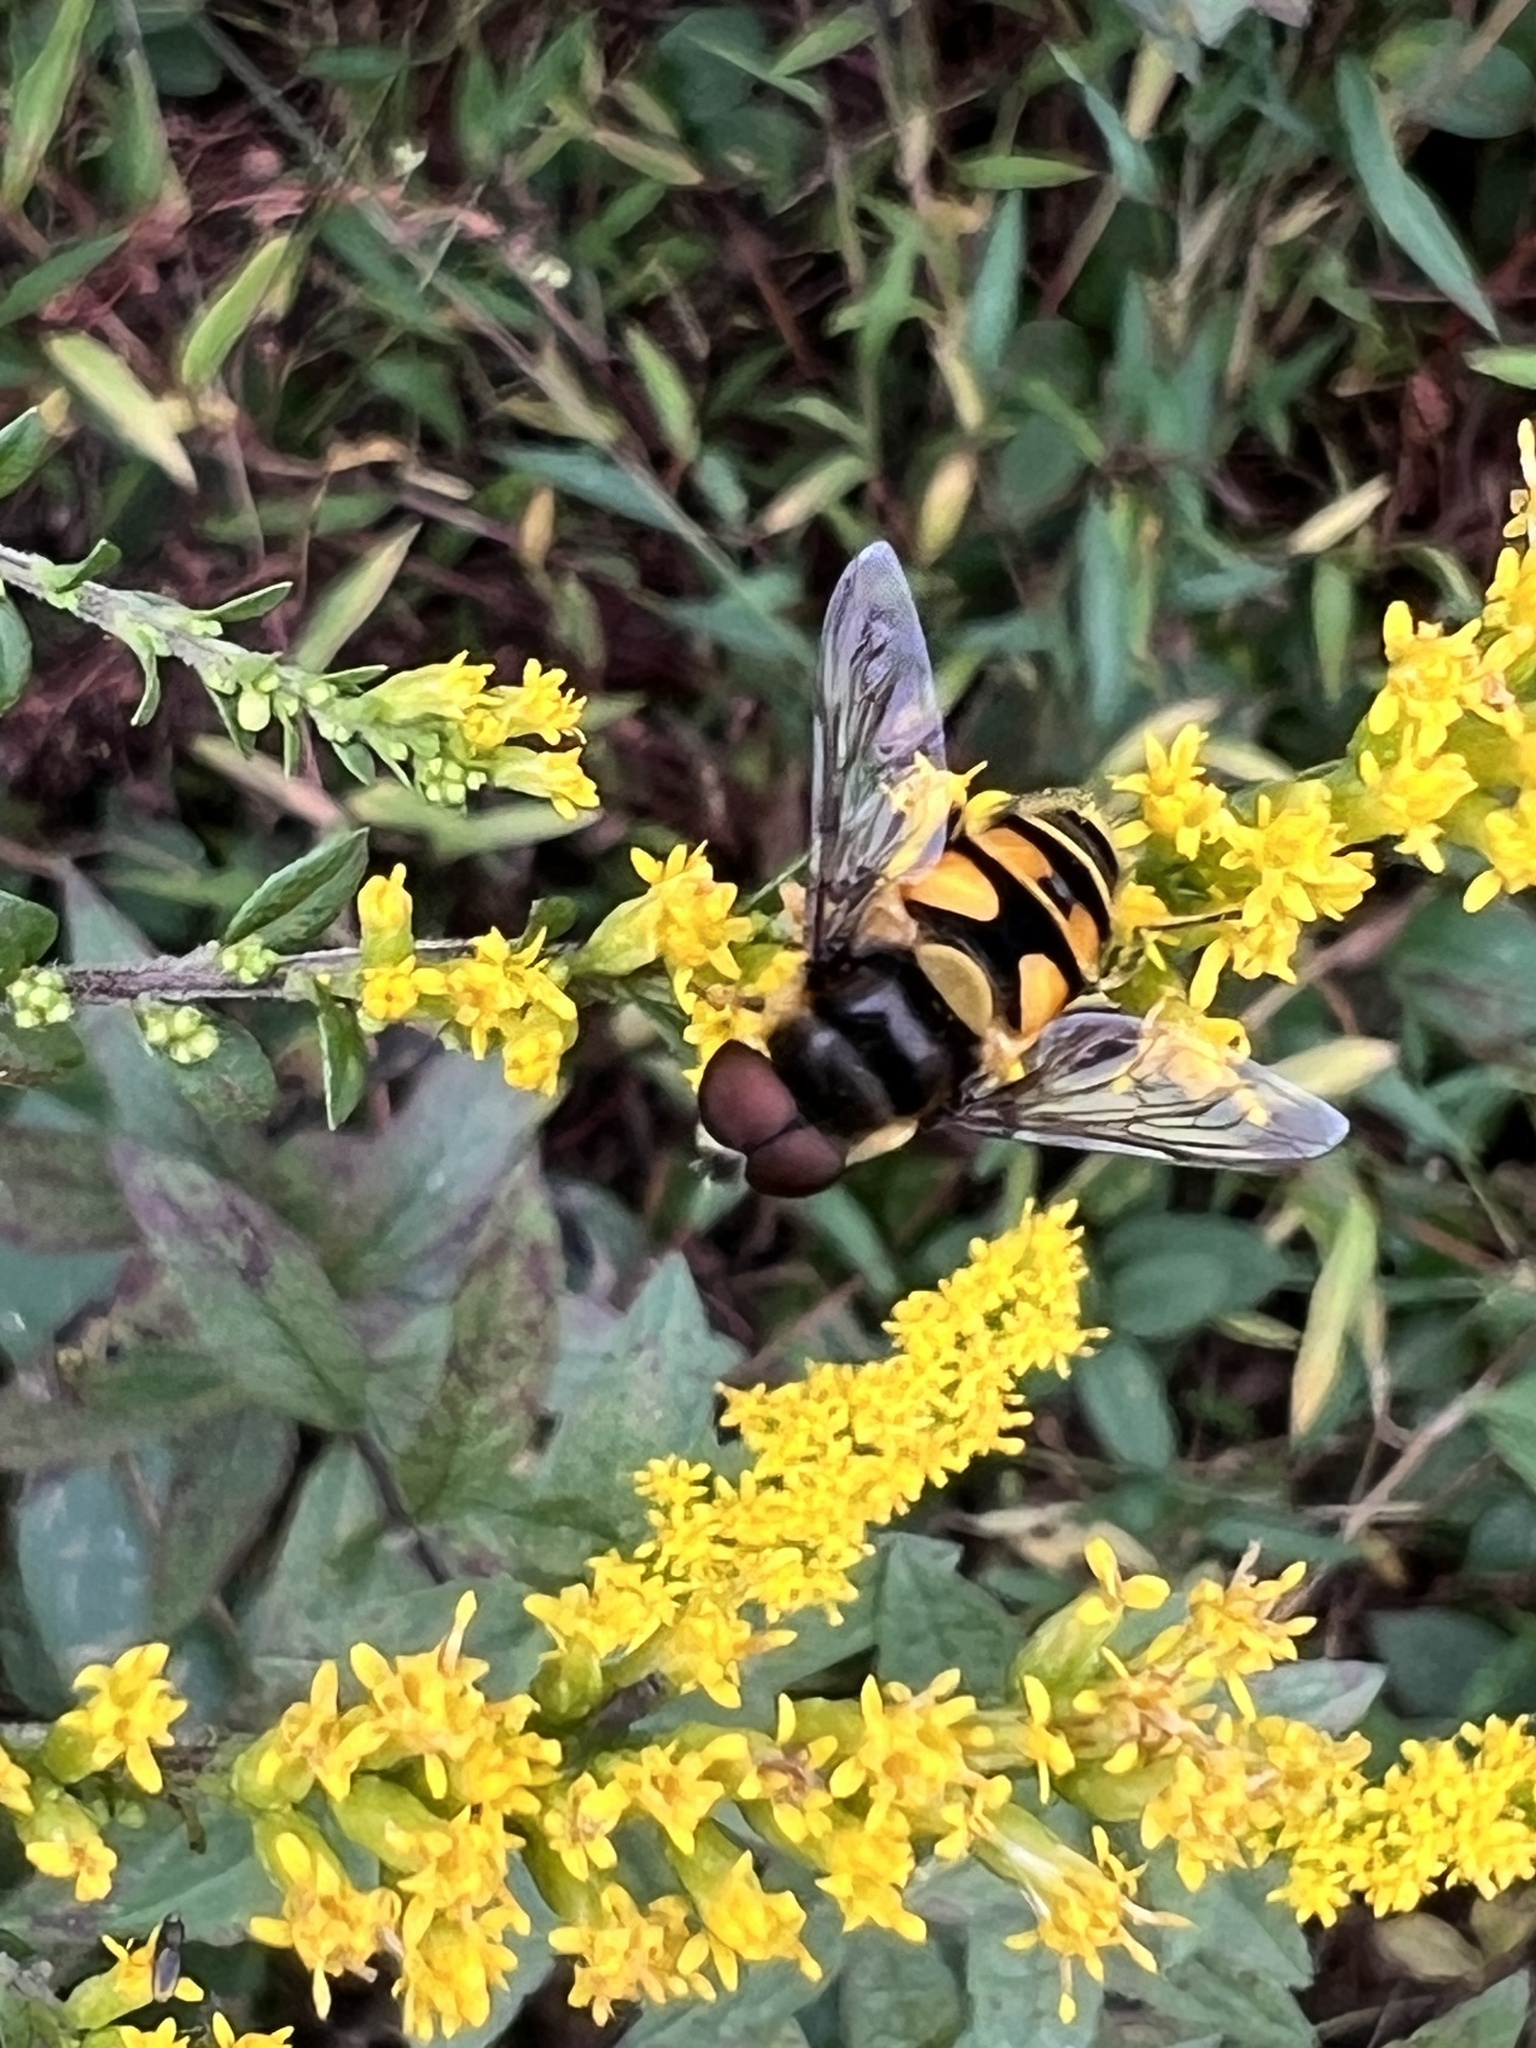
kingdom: Animalia
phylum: Arthropoda
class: Insecta
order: Diptera
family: Syrphidae
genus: Eristalis
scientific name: Eristalis transversa
